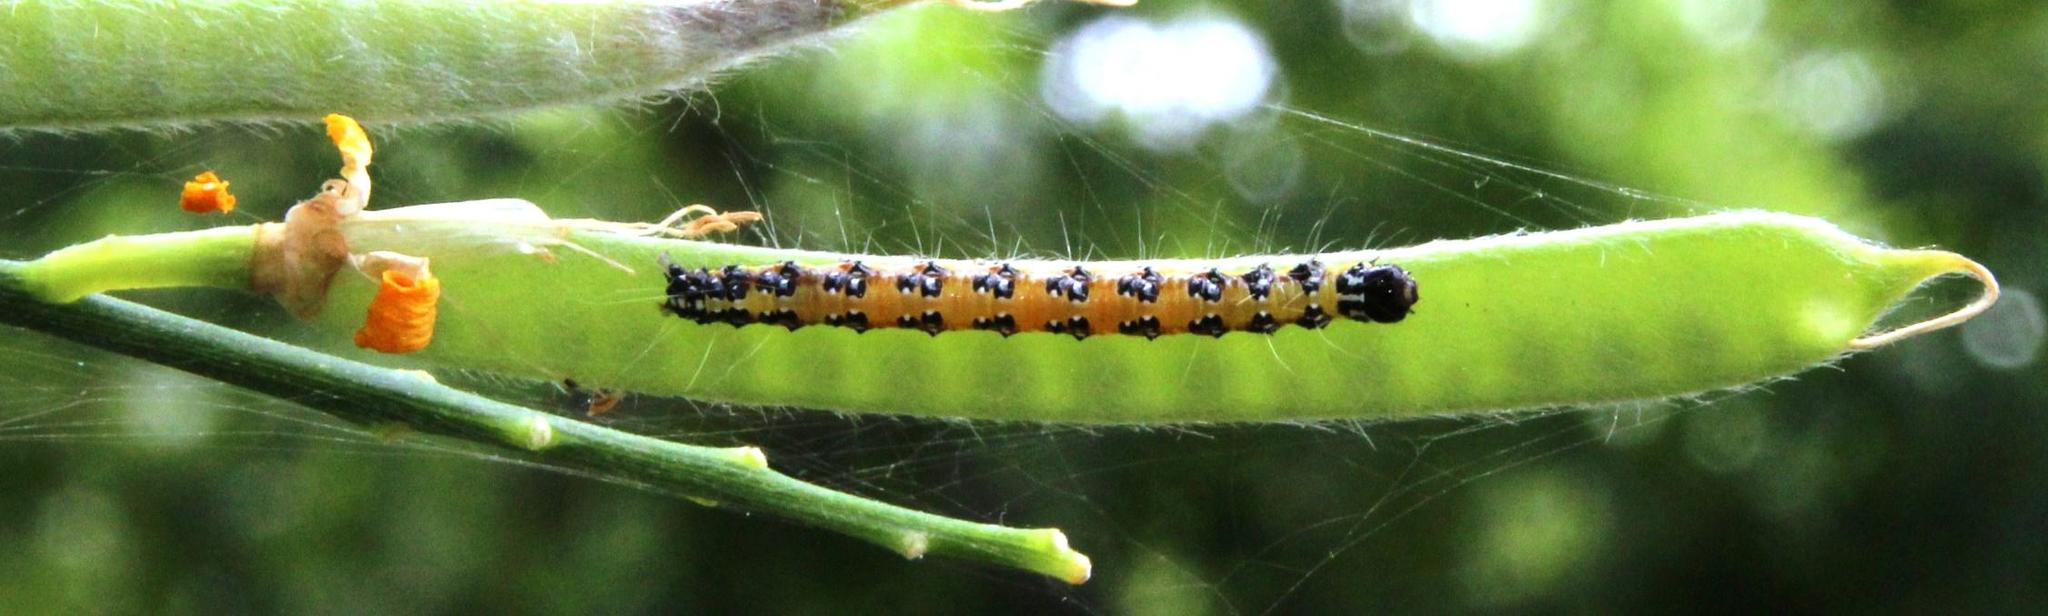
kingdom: Animalia
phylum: Arthropoda
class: Insecta
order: Lepidoptera
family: Crambidae
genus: Uresiphita
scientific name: Uresiphita gilvata
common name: Yellow-underwing pearl
